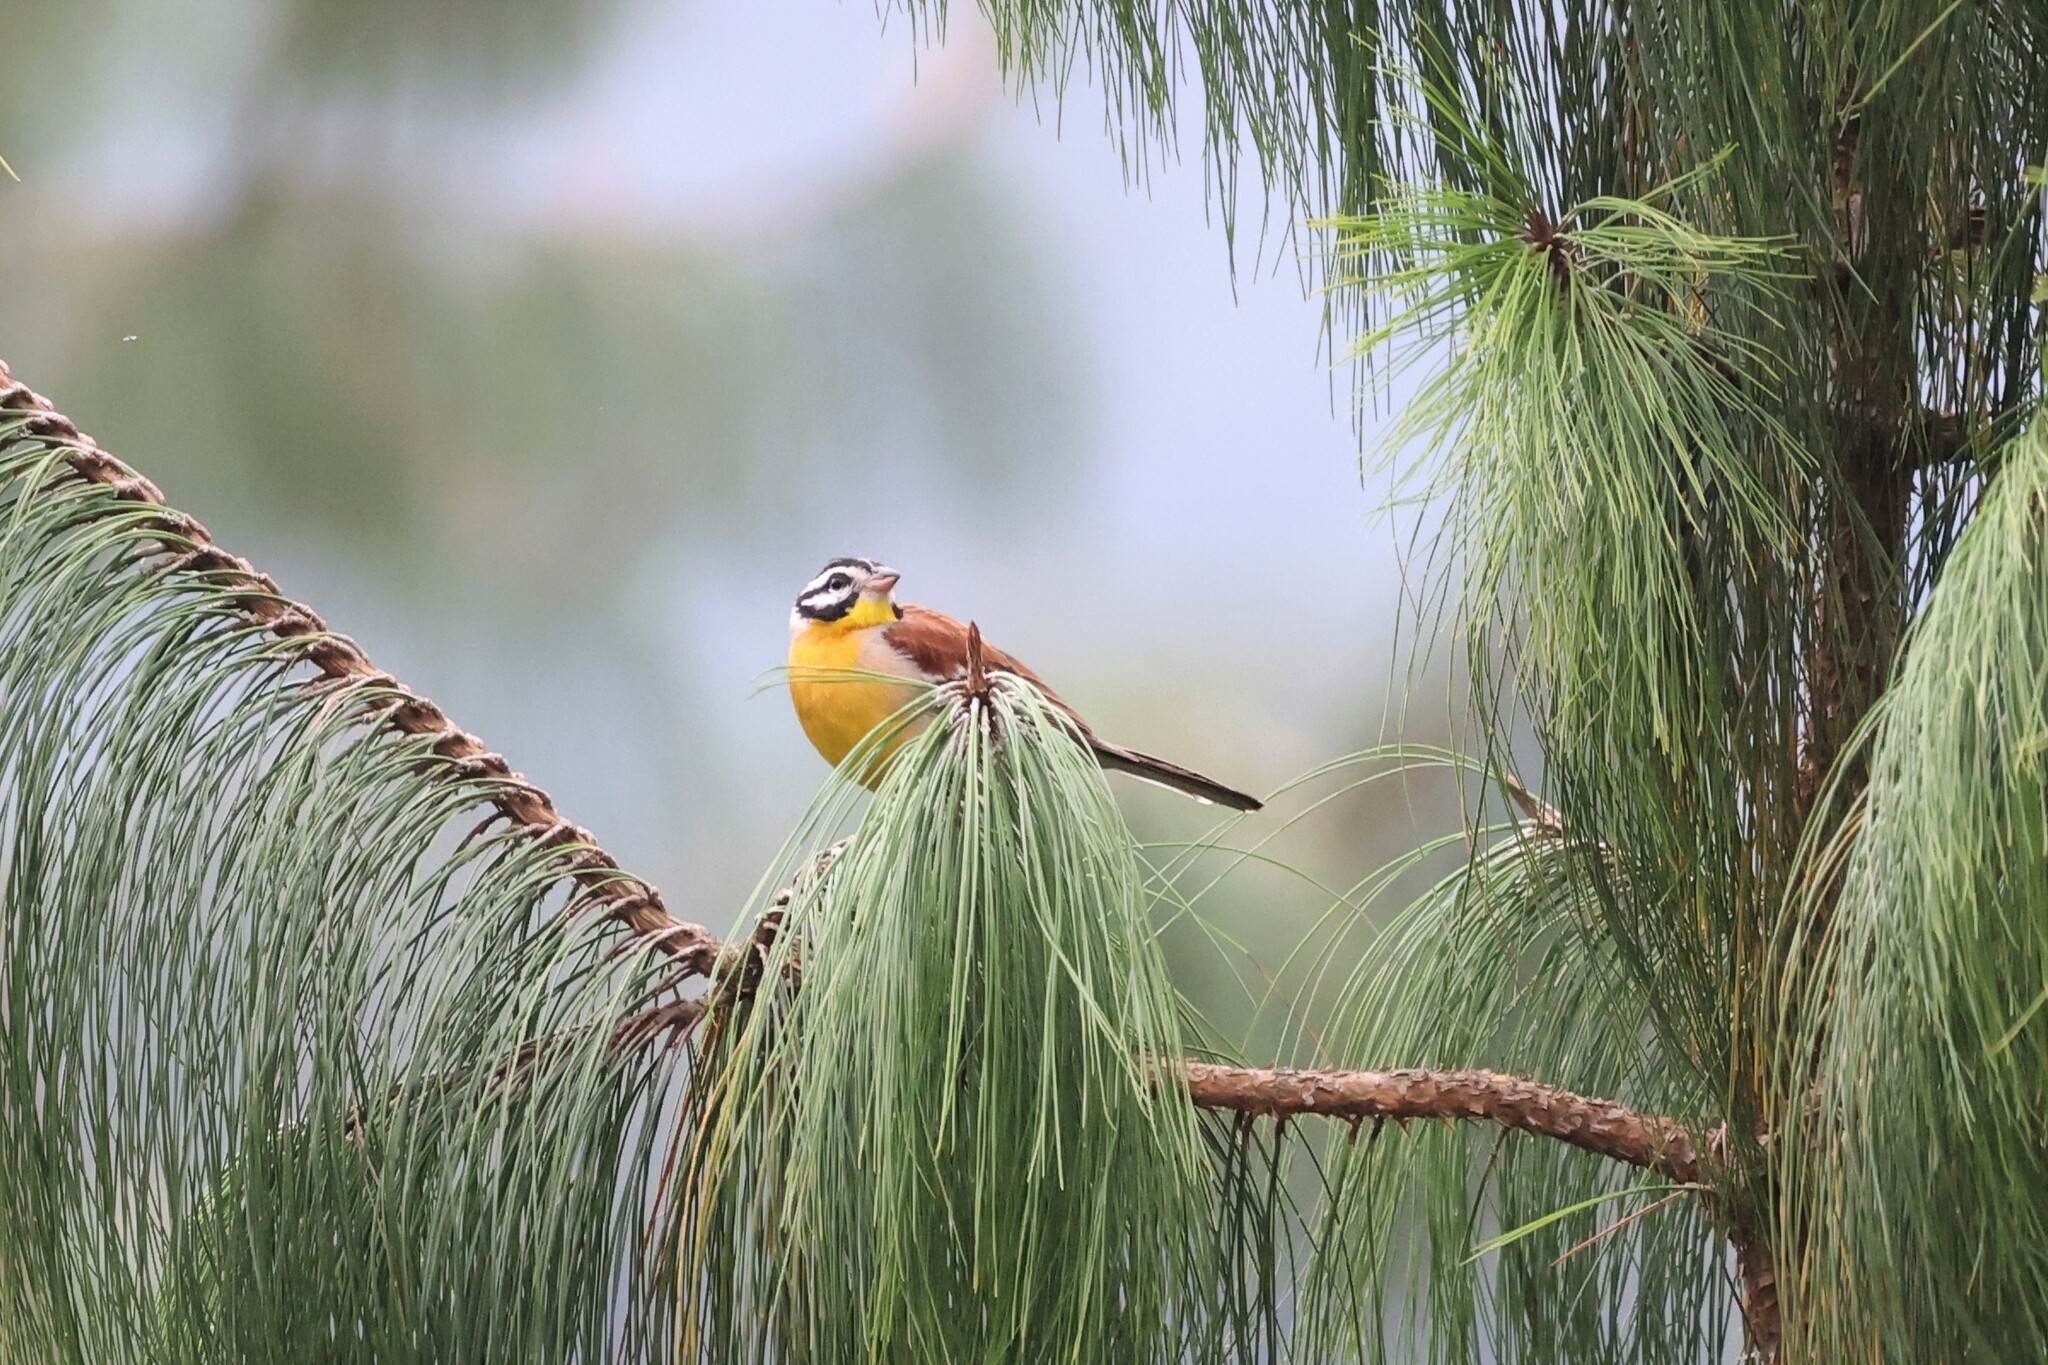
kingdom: Animalia
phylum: Chordata
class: Aves
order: Passeriformes
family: Emberizidae
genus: Emberiza
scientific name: Emberiza flaviventris
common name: Golden-breasted bunting
